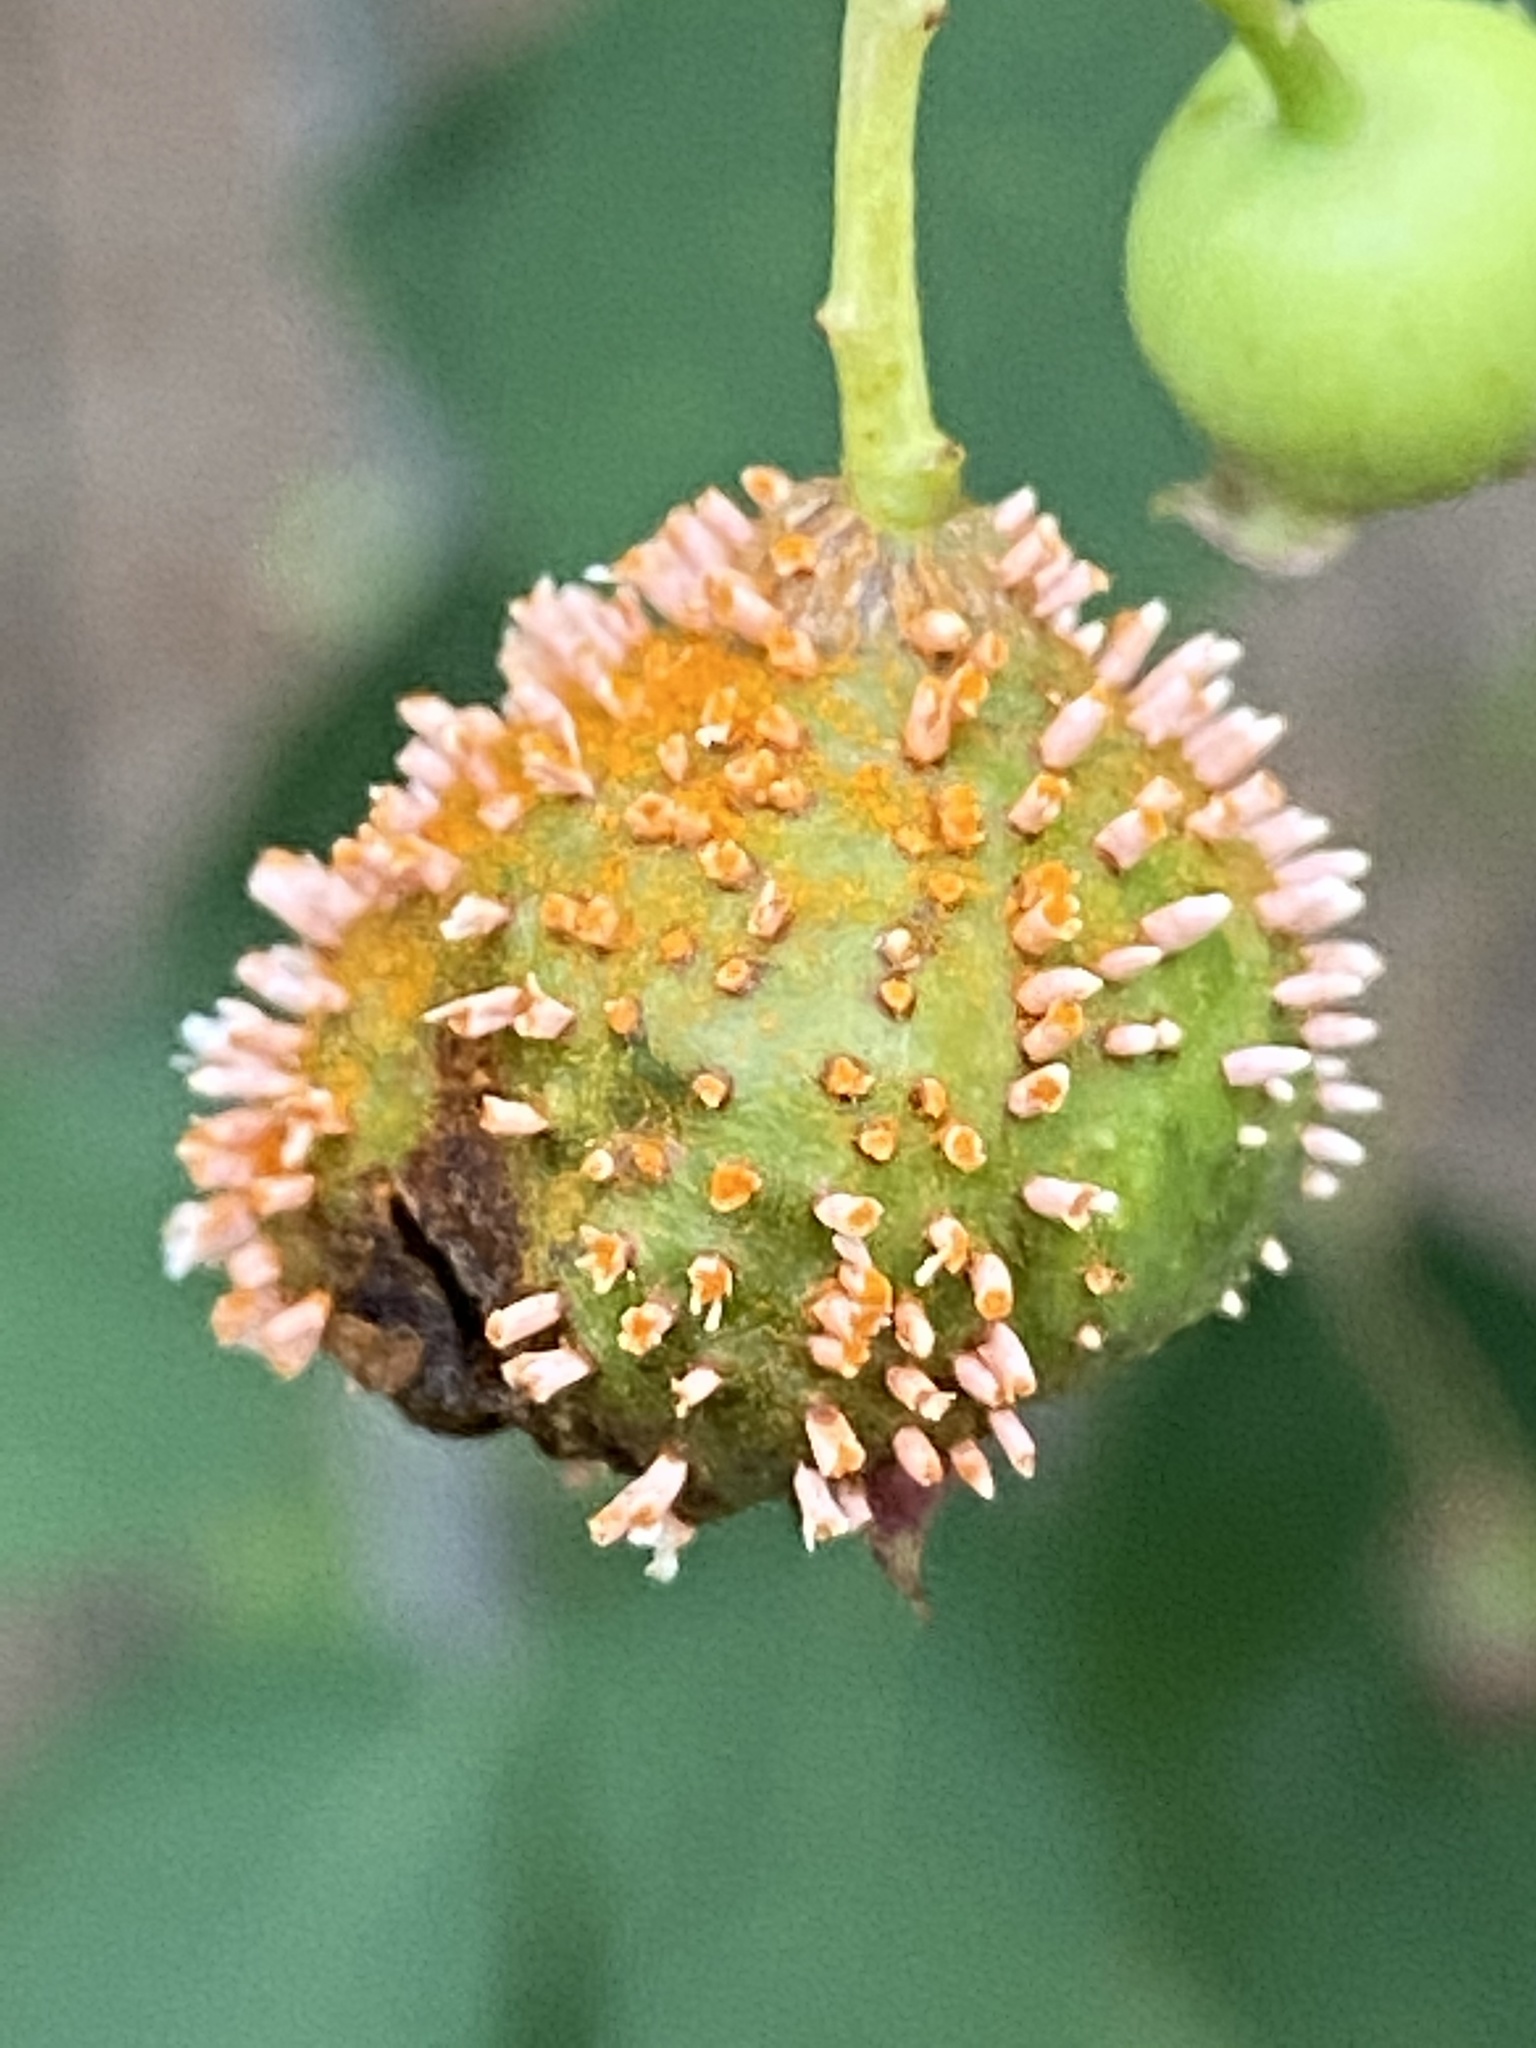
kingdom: Fungi
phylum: Basidiomycota
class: Pucciniomycetes
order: Pucciniales
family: Gymnosporangiaceae
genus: Gymnosporangium
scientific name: Gymnosporangium clavipes
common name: Quince rust
